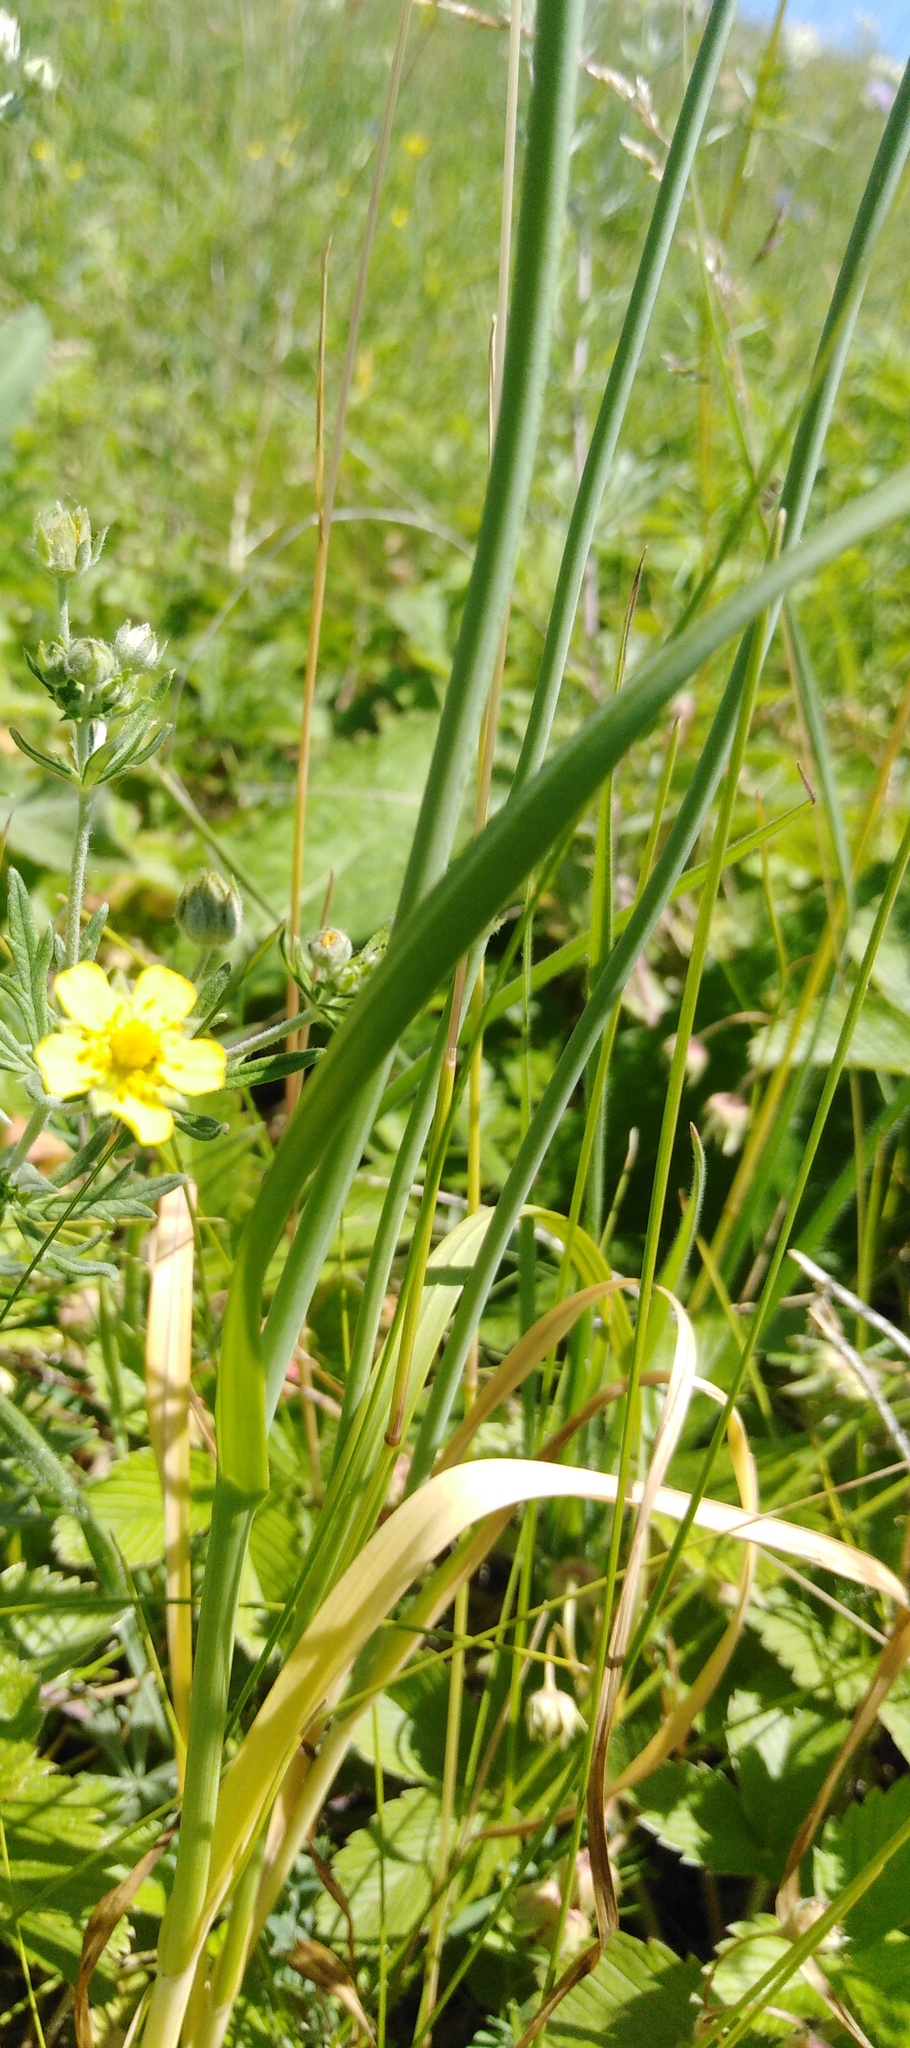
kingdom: Plantae
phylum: Tracheophyta
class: Liliopsida
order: Asparagales
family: Amaryllidaceae
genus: Allium
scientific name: Allium rotundum
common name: Sand leek
